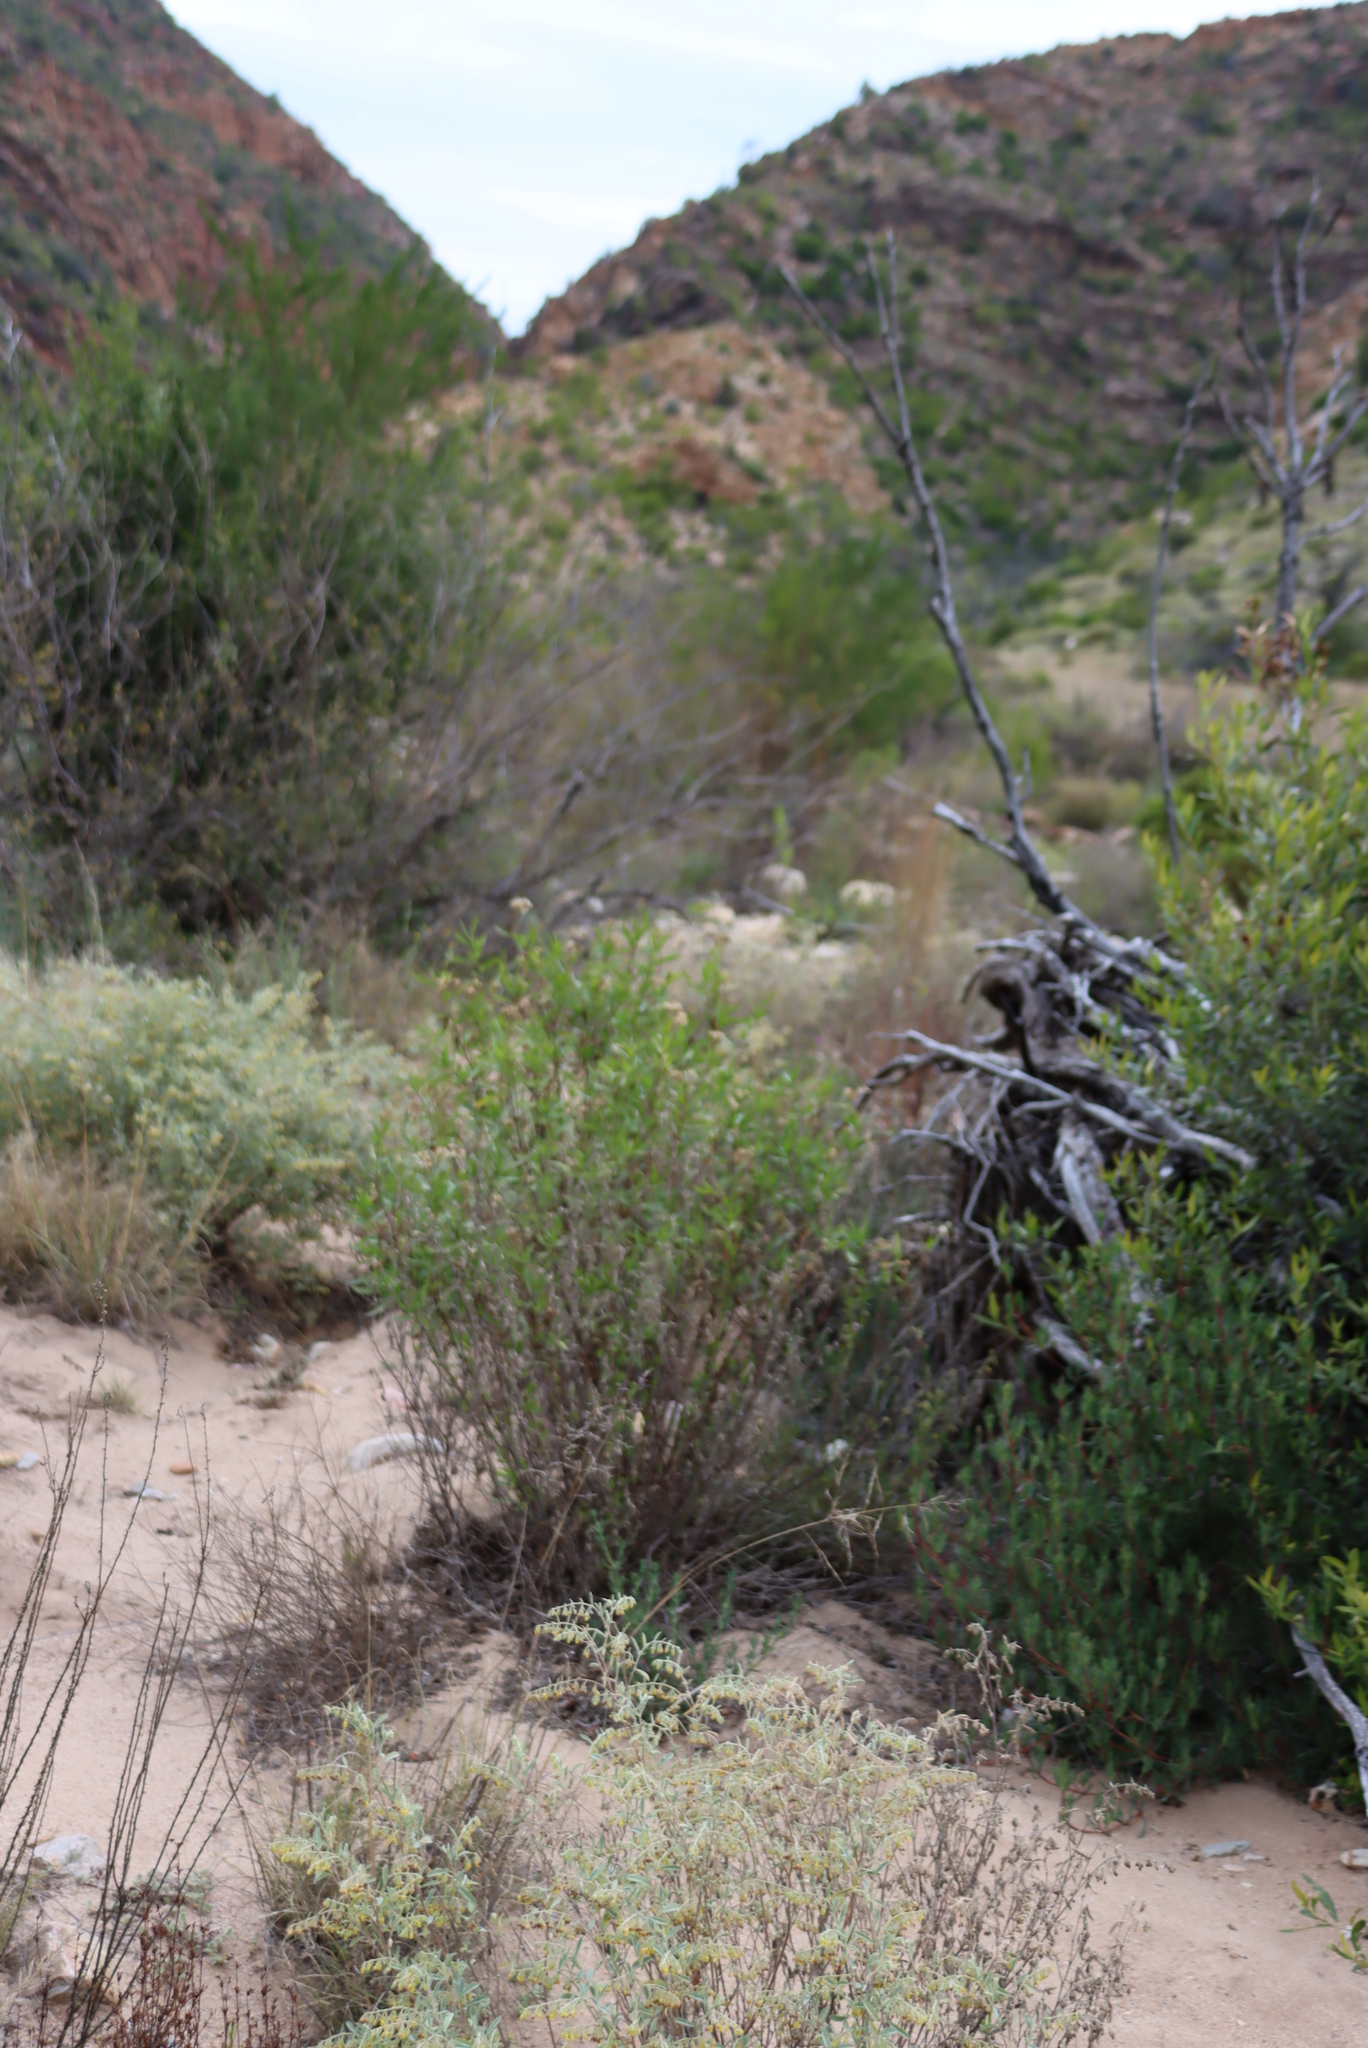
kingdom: Plantae
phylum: Tracheophyta
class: Magnoliopsida
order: Asterales
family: Asteraceae
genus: Nidorella
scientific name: Nidorella ivifolia
